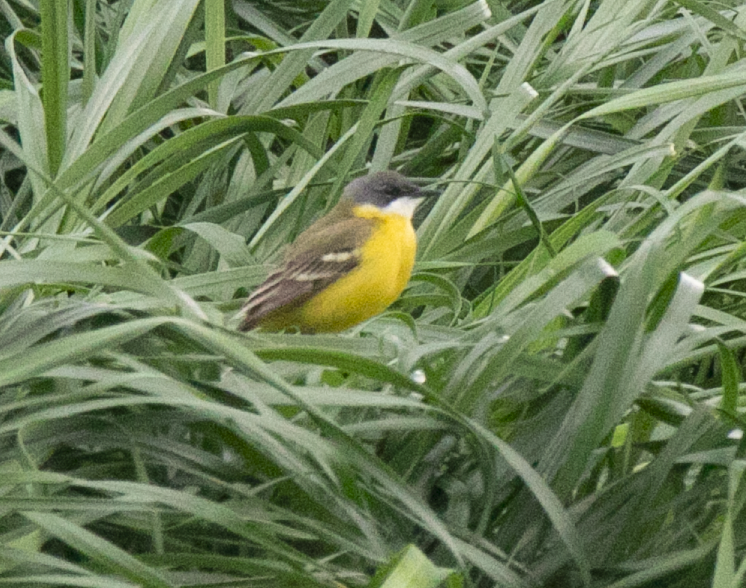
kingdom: Animalia
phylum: Chordata
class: Aves
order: Passeriformes
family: Motacillidae
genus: Motacilla
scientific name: Motacilla flava
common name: Western yellow wagtail
